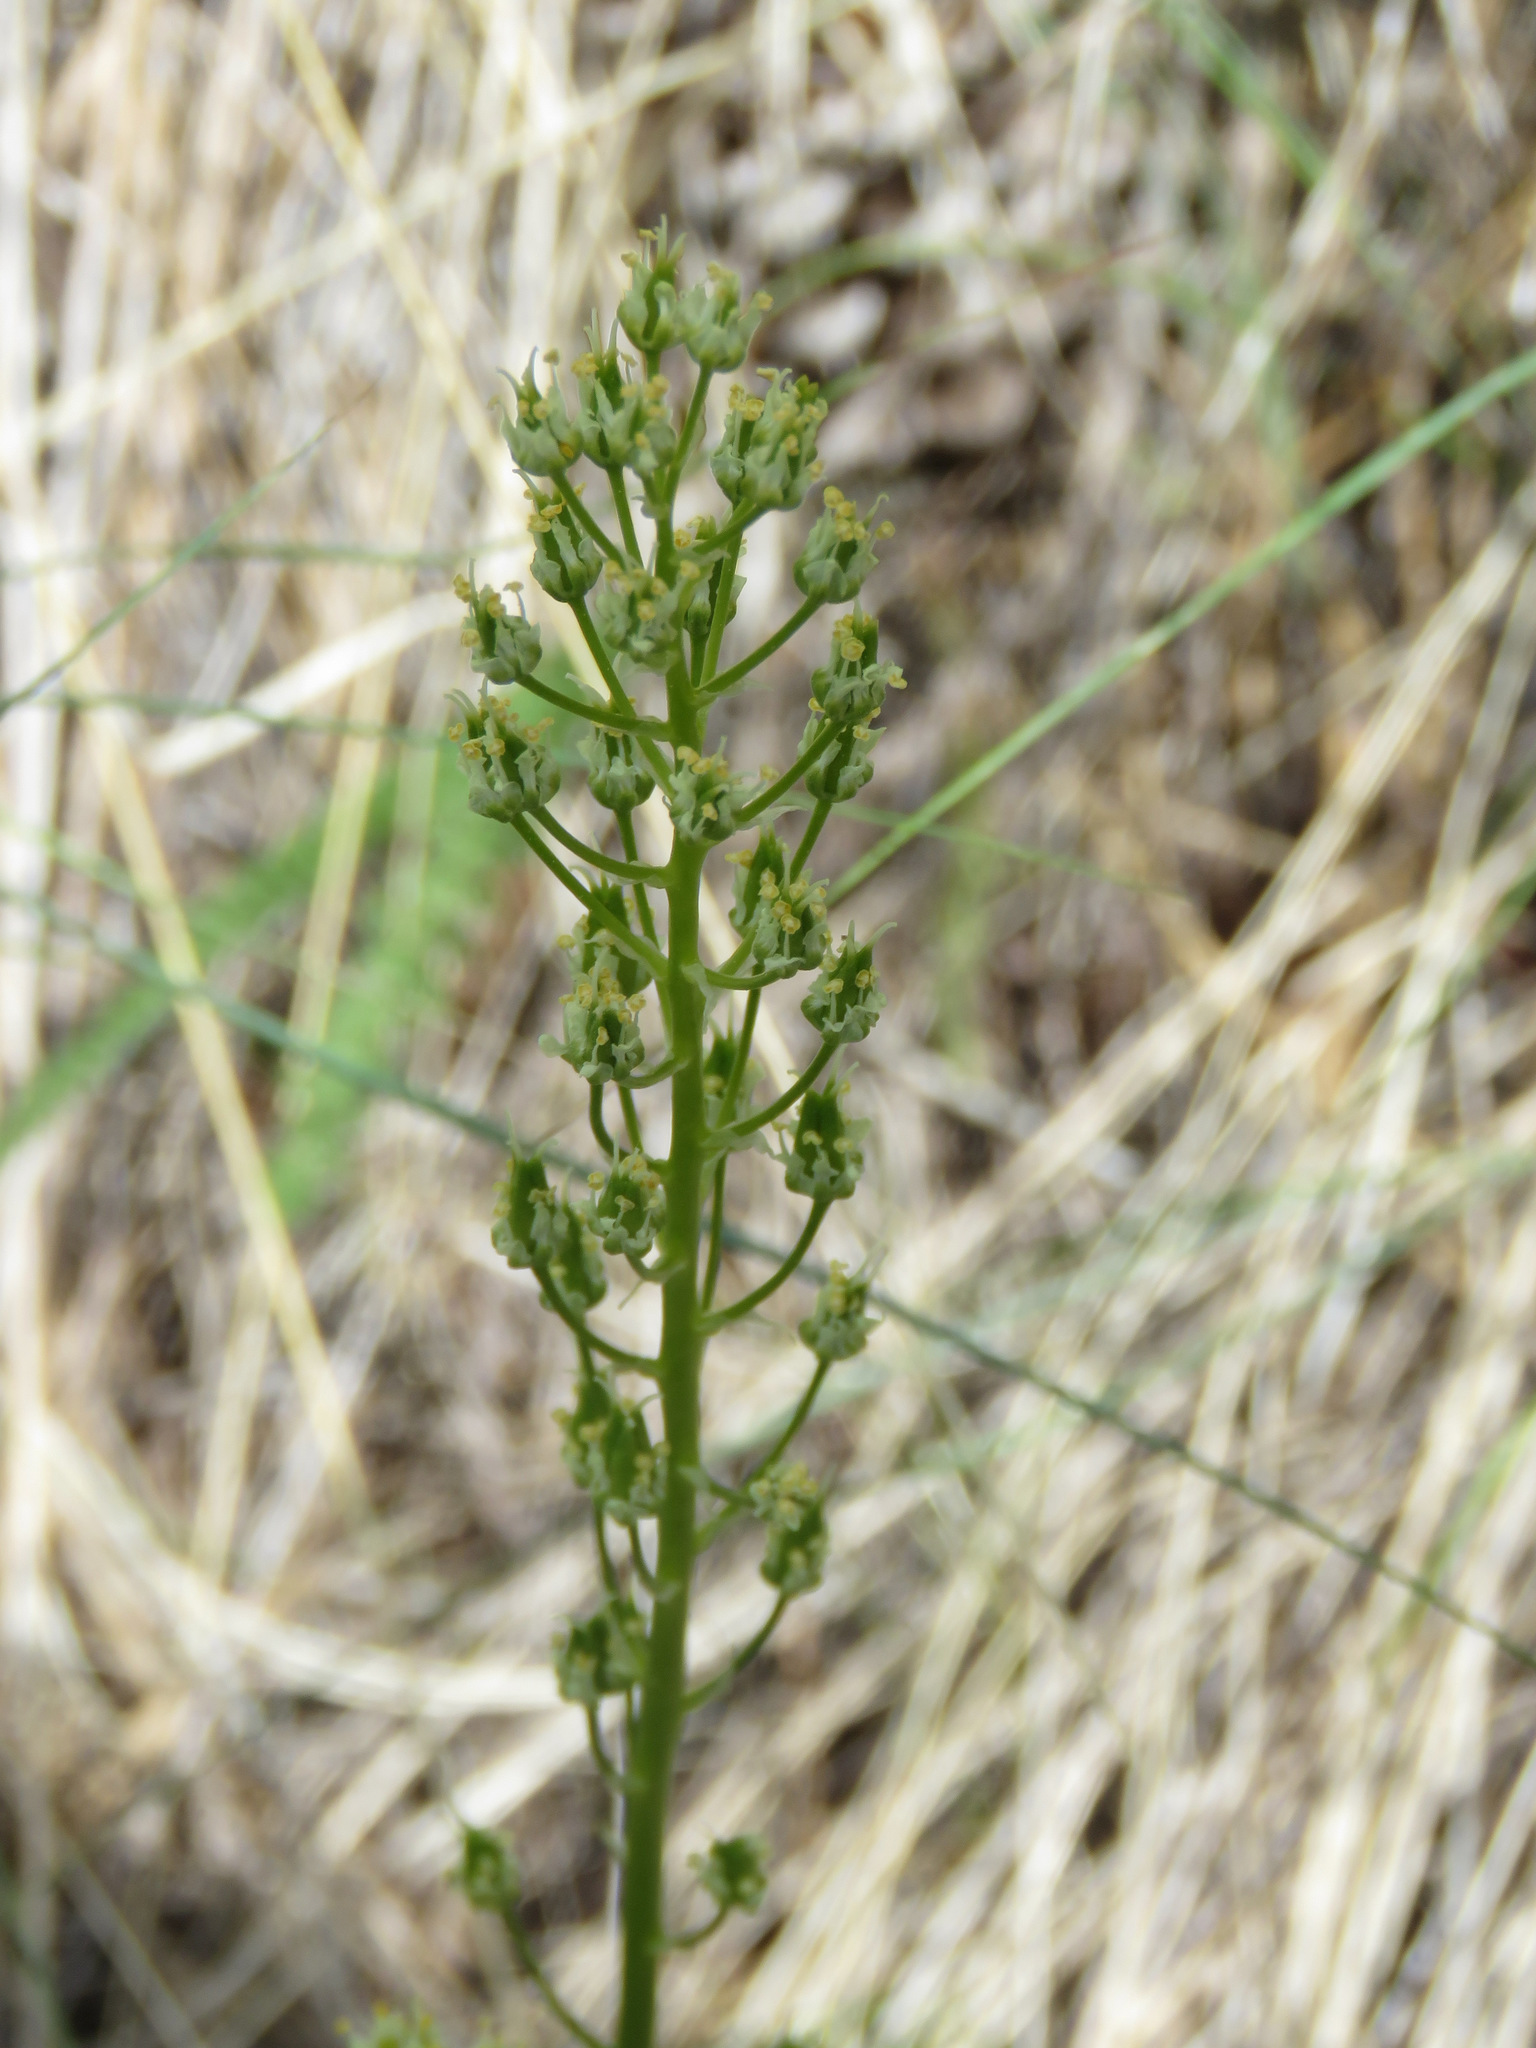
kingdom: Plantae
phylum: Tracheophyta
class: Liliopsida
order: Liliales
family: Melanthiaceae
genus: Toxicoscordion
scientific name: Toxicoscordion venenosum
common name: Meadow death camas
